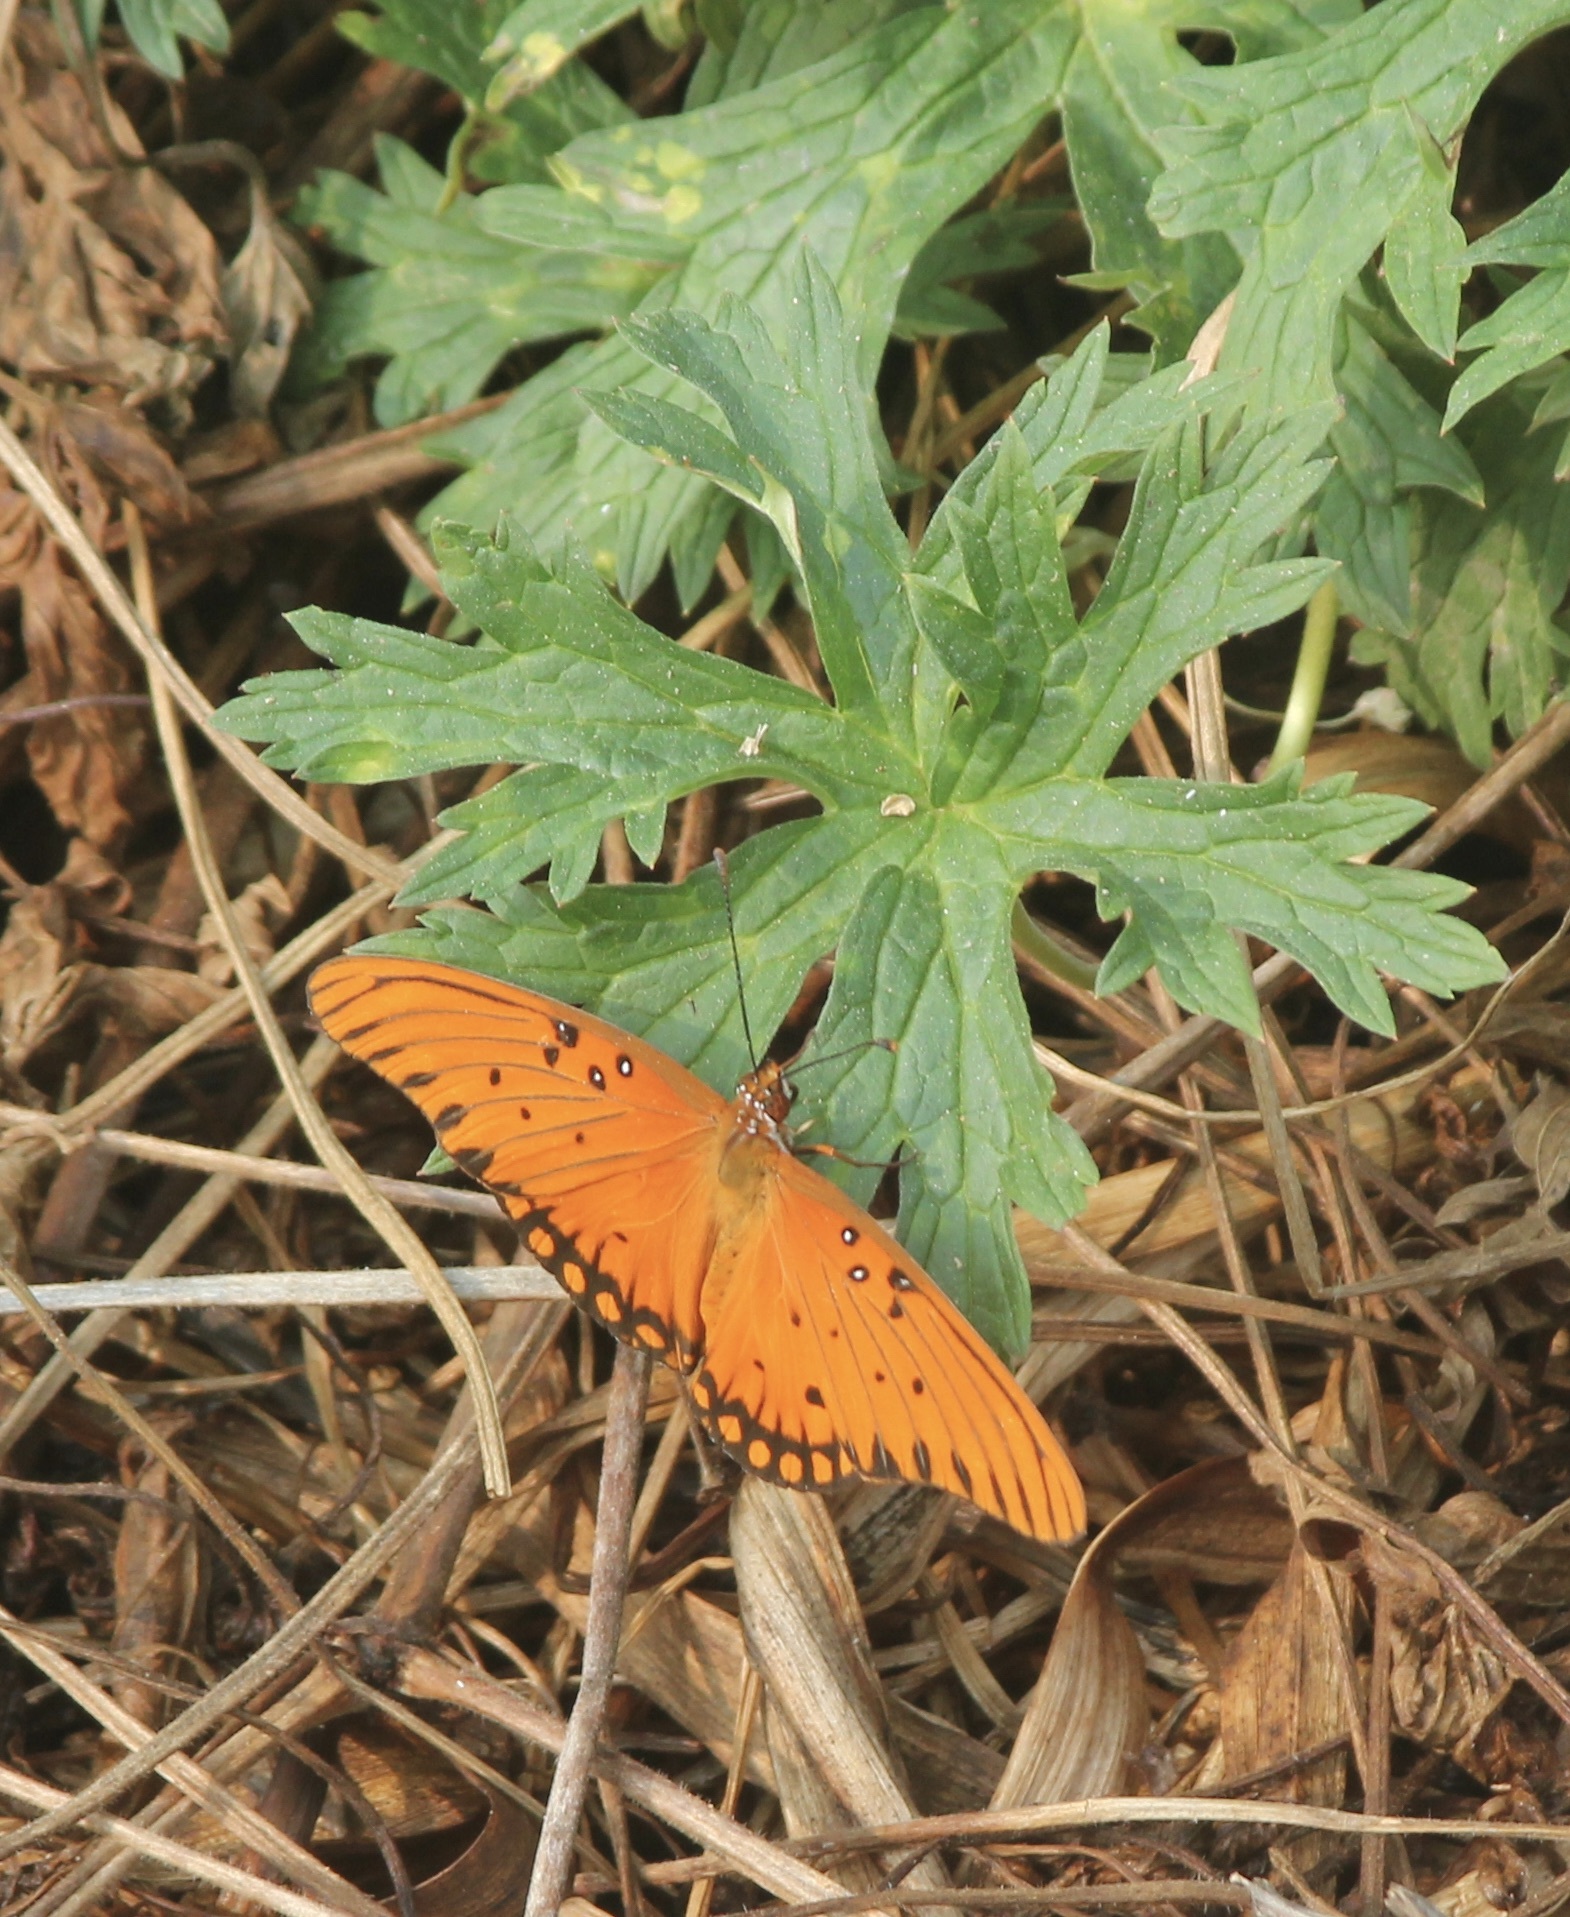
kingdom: Animalia
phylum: Arthropoda
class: Insecta
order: Lepidoptera
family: Nymphalidae
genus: Dione
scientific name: Dione vanillae
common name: Gulf fritillary
